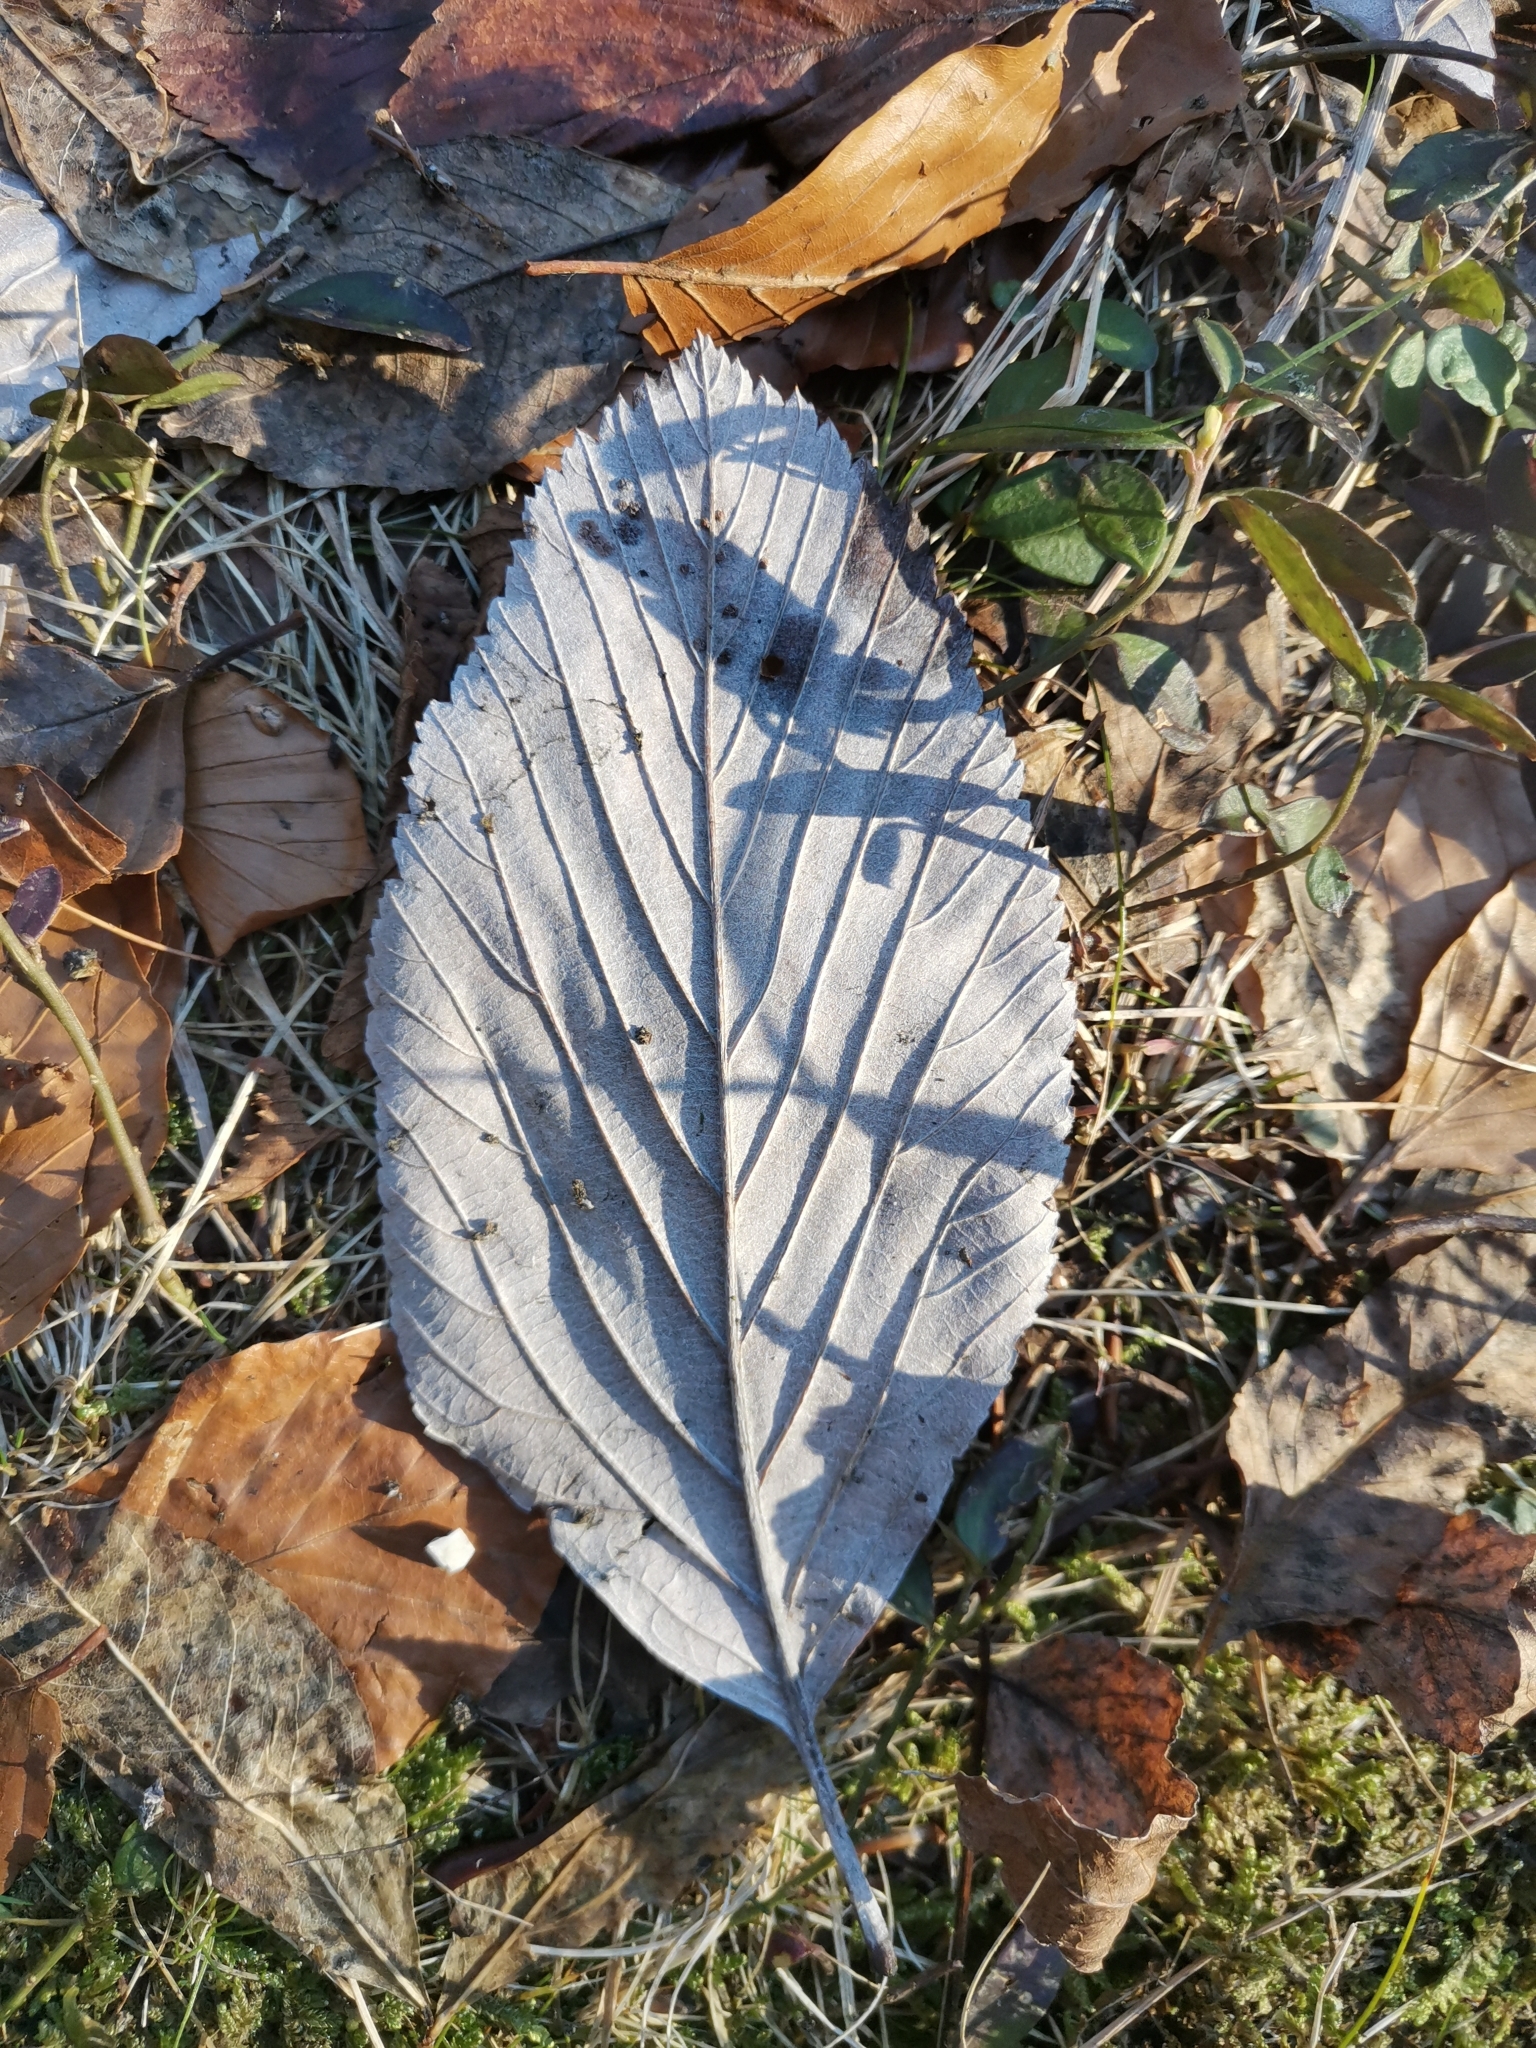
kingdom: Plantae
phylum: Tracheophyta
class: Magnoliopsida
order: Rosales
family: Rosaceae
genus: Aria
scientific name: Aria edulis
